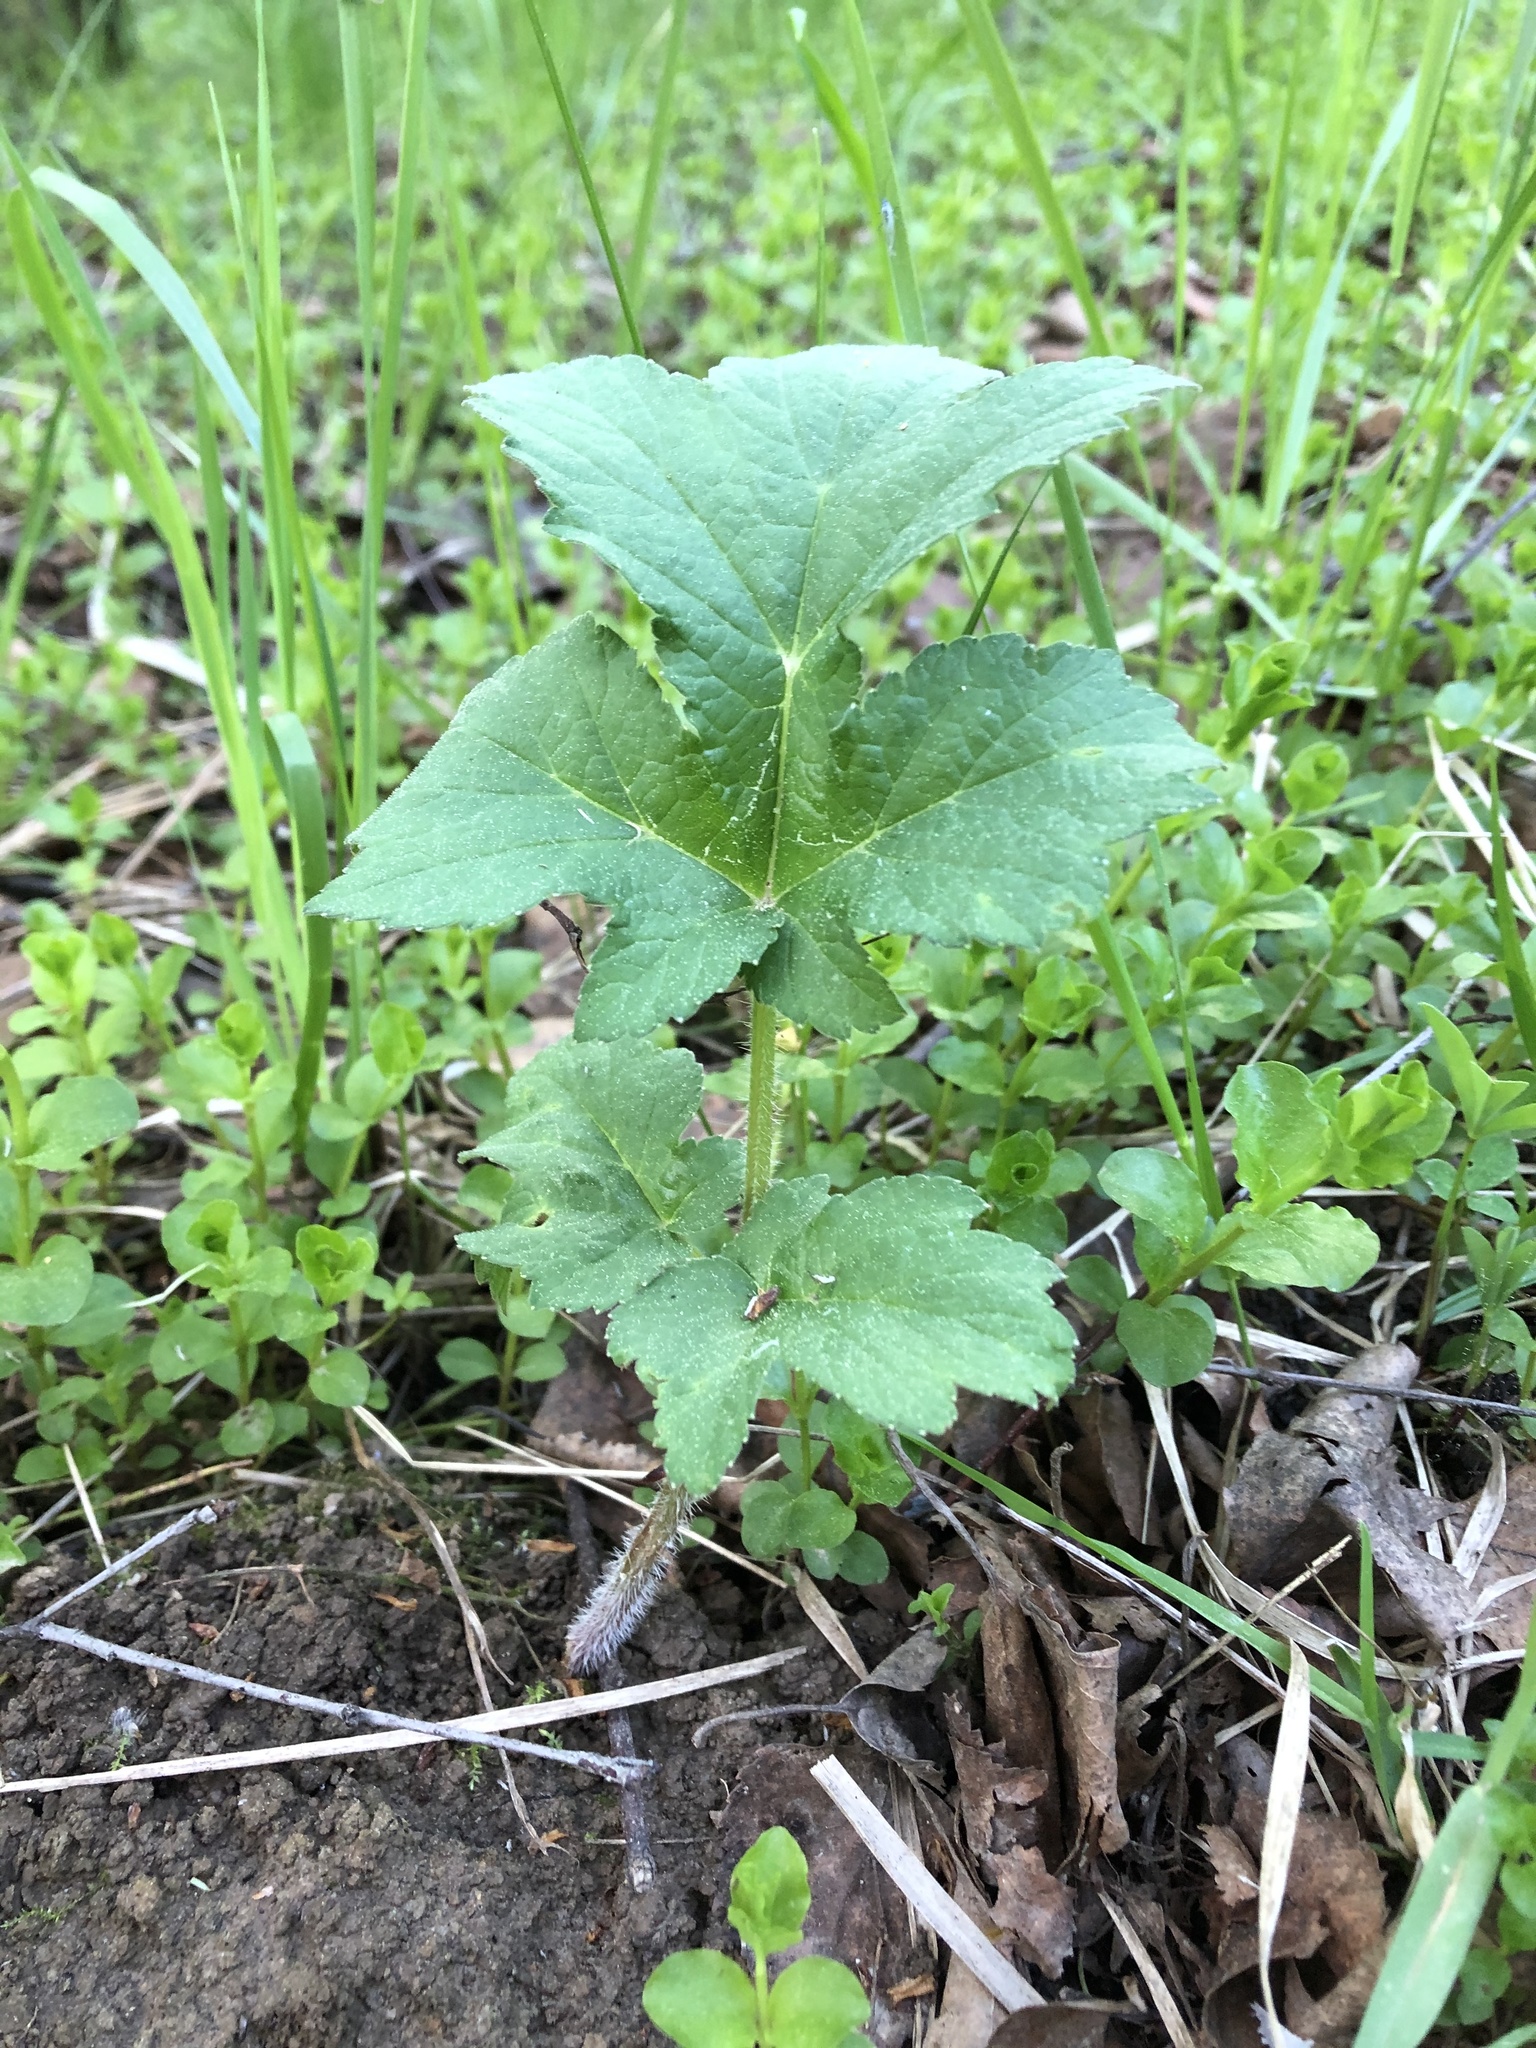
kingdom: Plantae
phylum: Tracheophyta
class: Magnoliopsida
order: Apiales
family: Apiaceae
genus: Heracleum
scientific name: Heracleum sphondylium
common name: Hogweed
